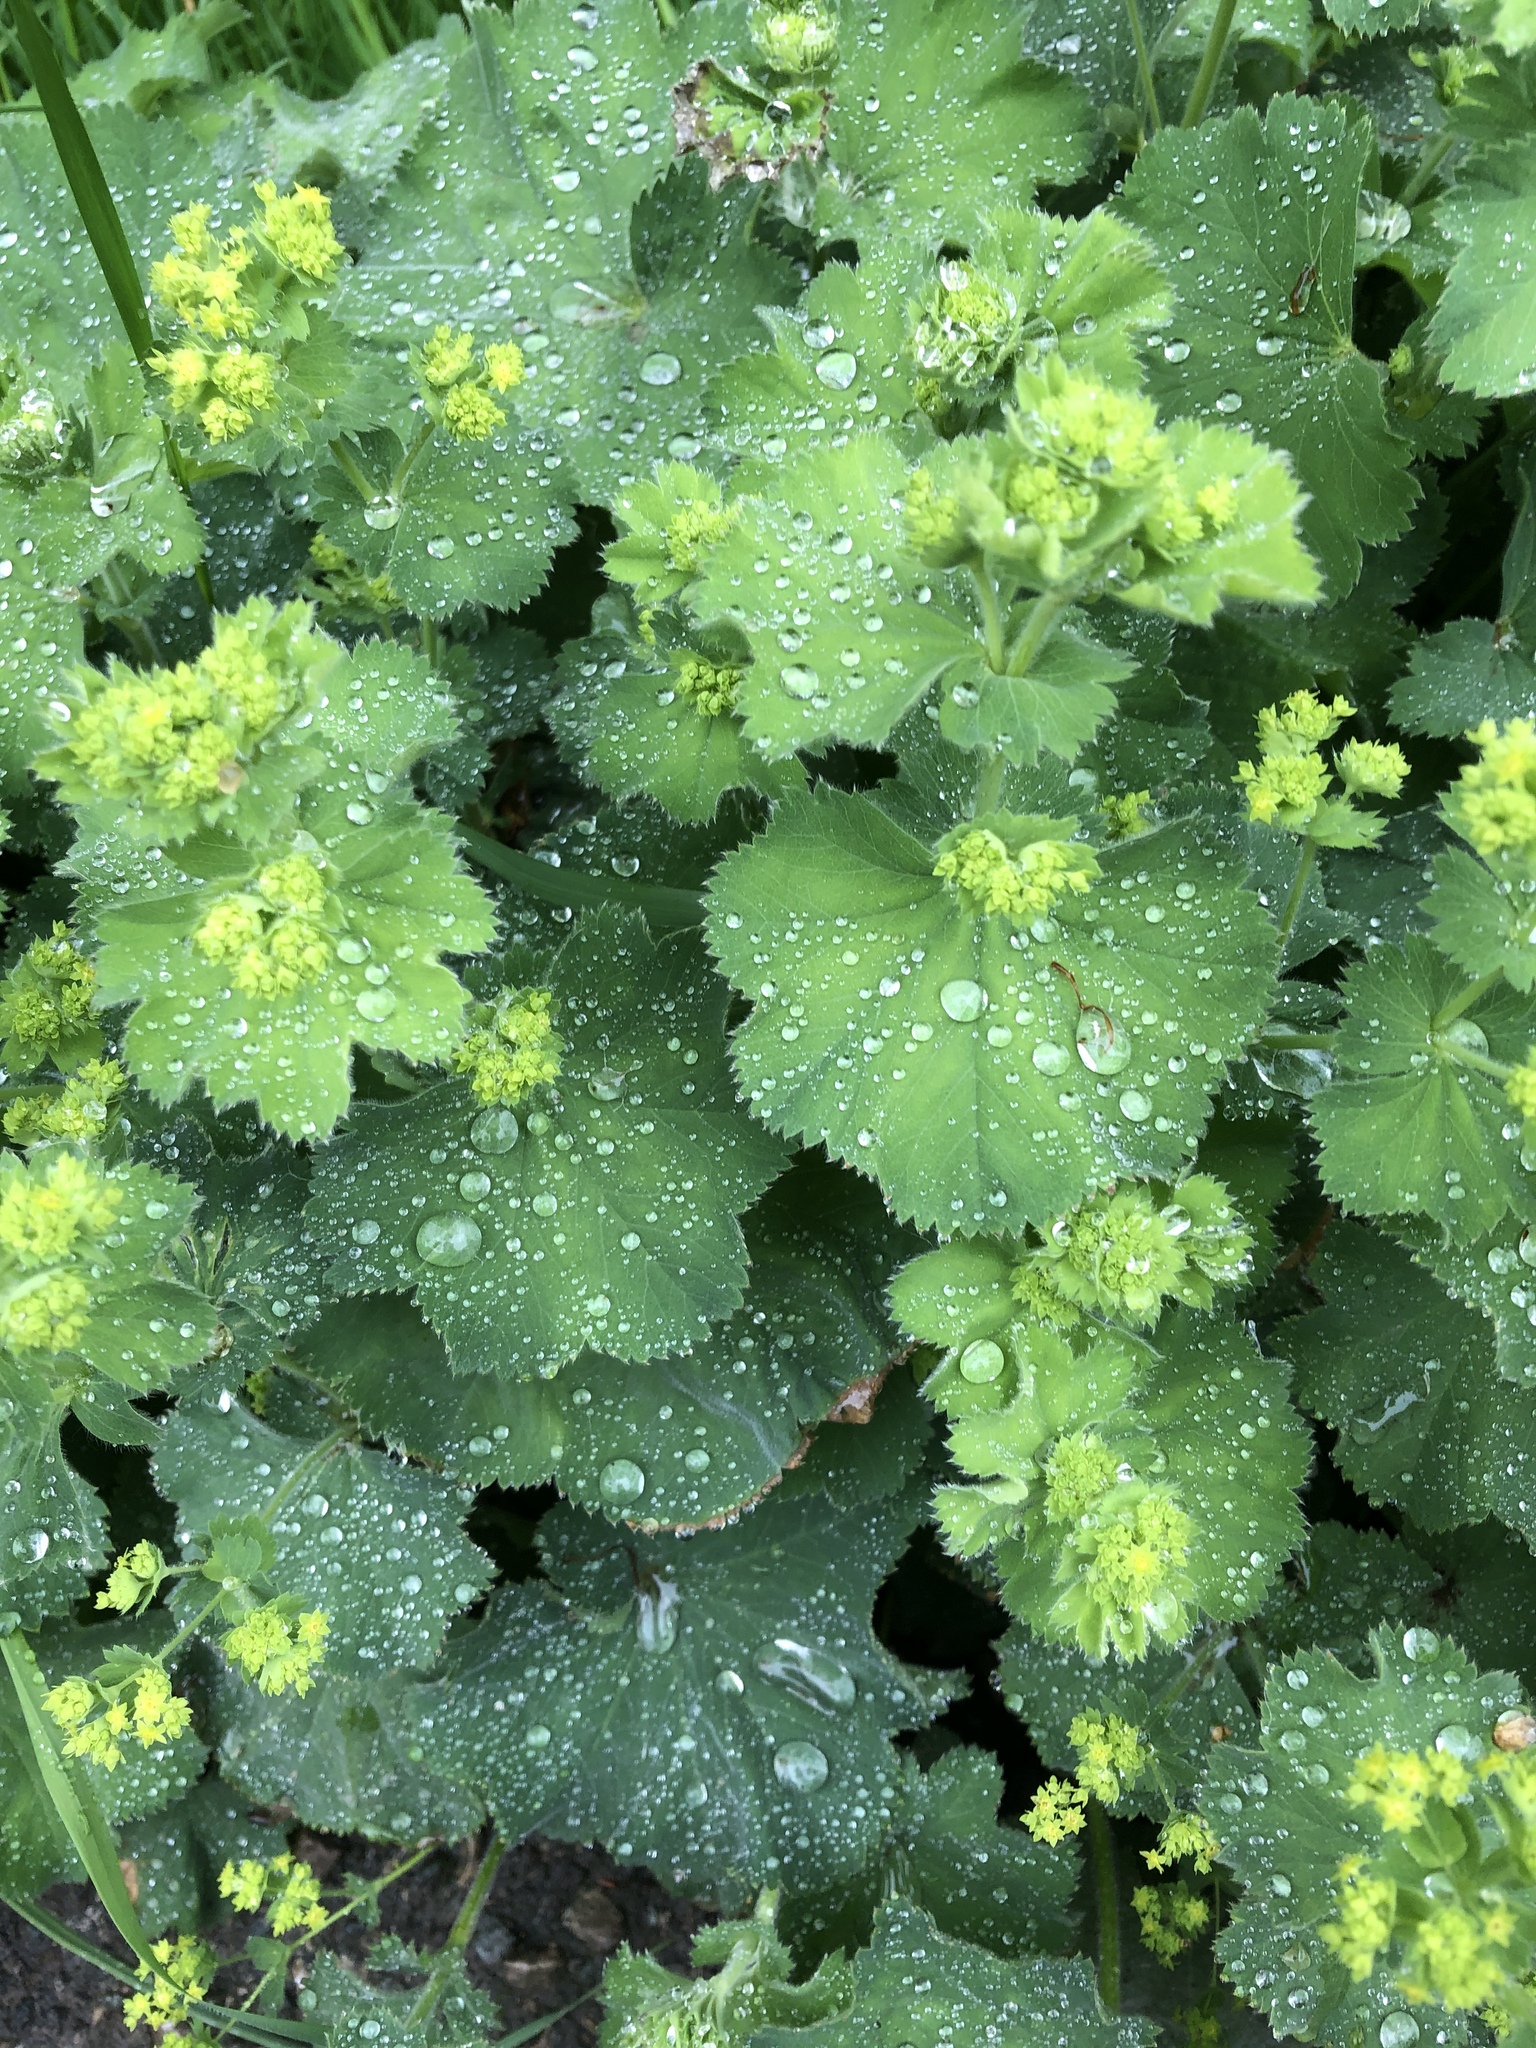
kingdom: Plantae
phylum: Tracheophyta
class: Magnoliopsida
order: Rosales
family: Rosaceae
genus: Alchemilla
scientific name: Alchemilla mollis
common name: Lady's-mantle
